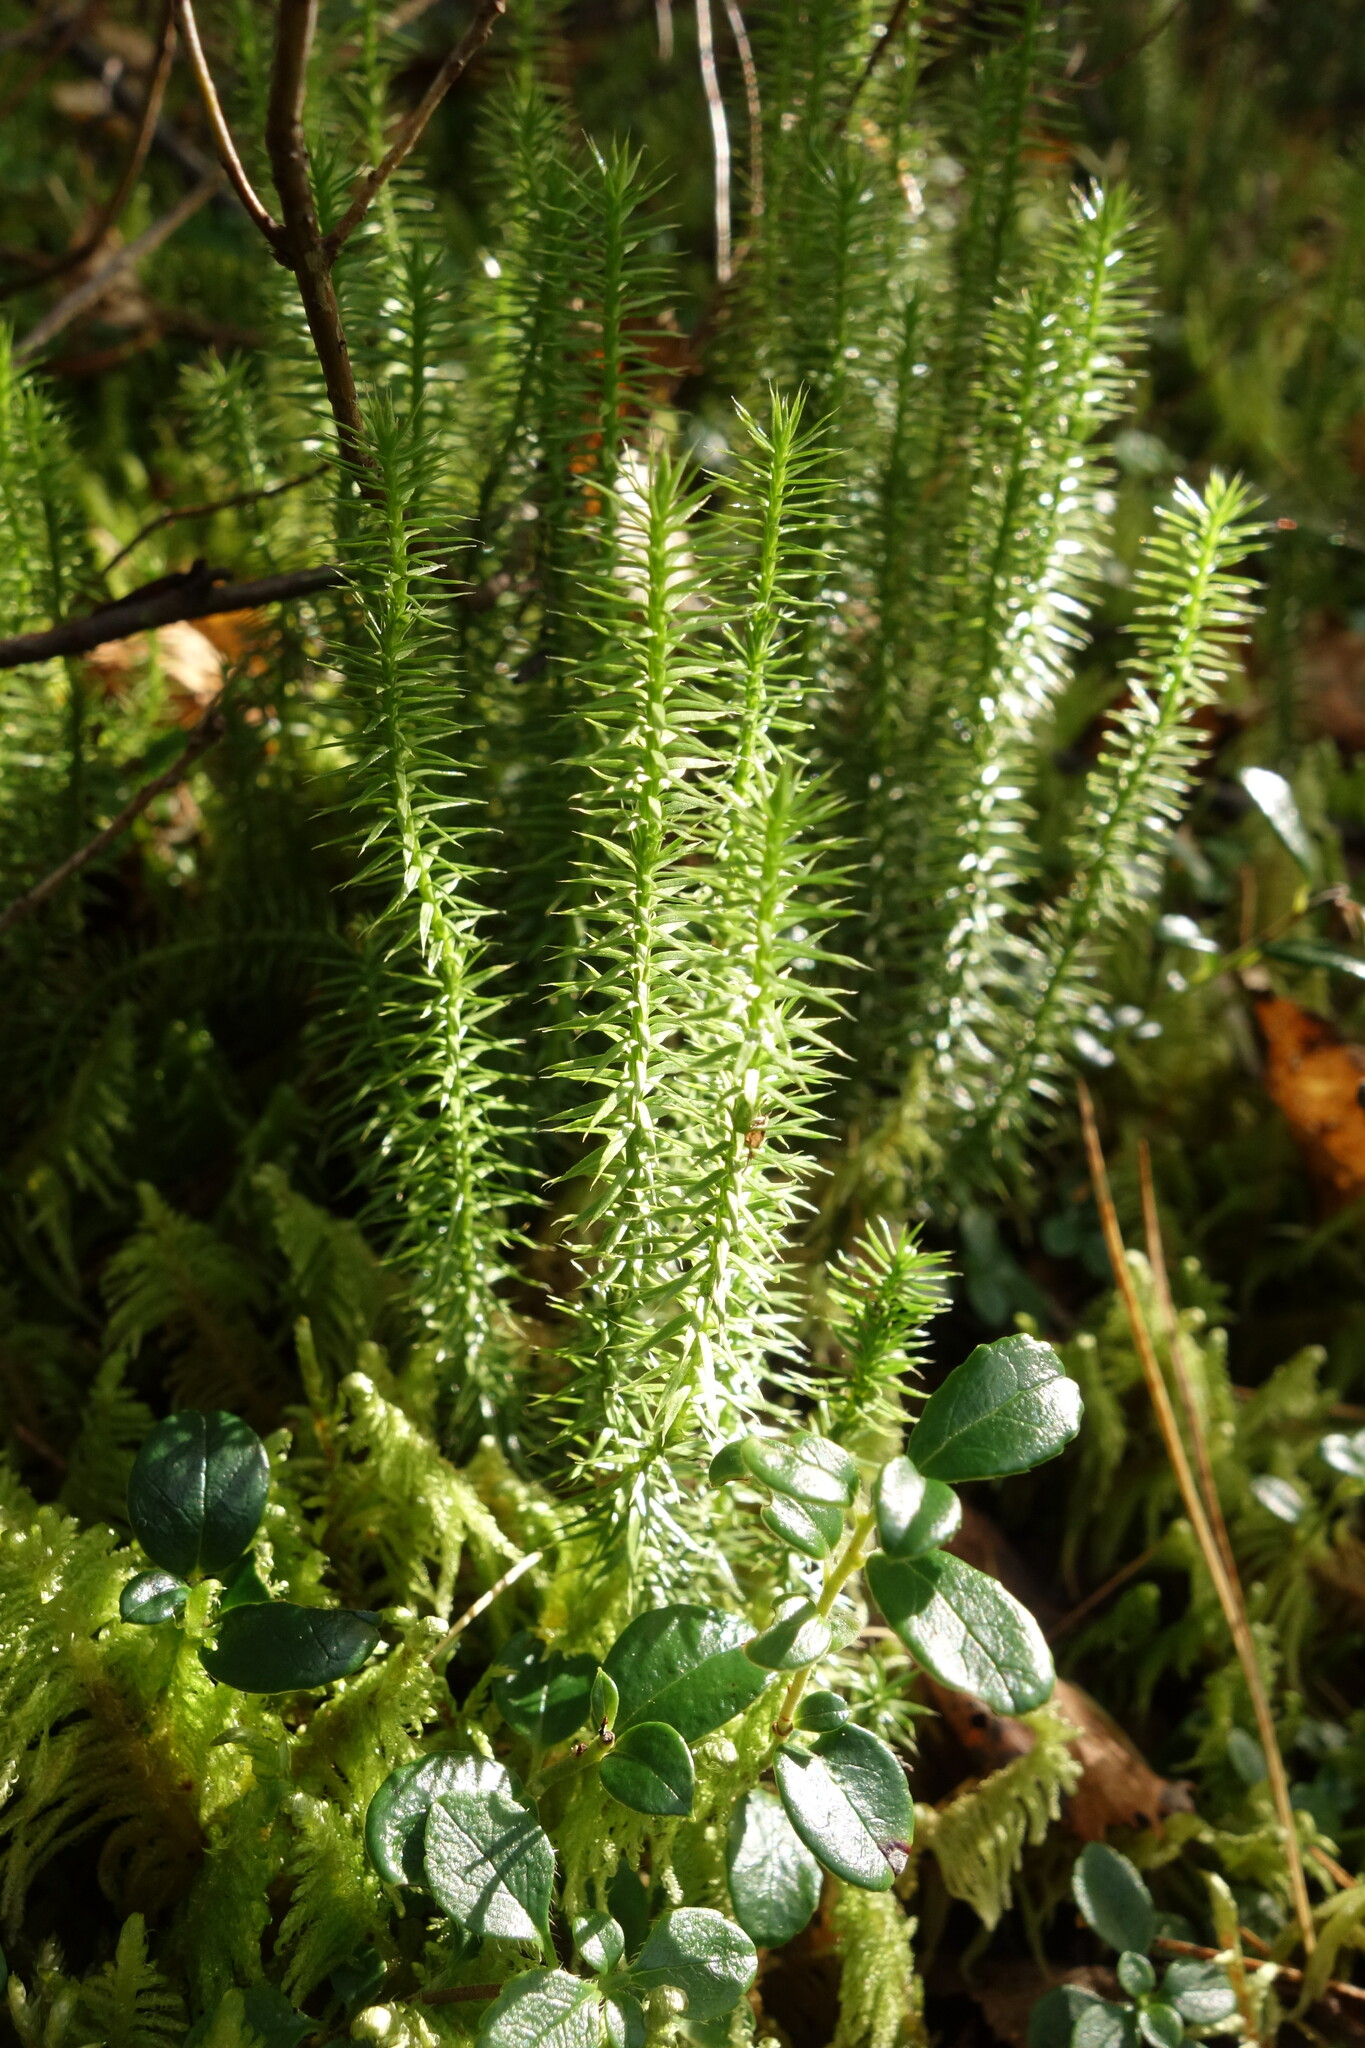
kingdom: Plantae
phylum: Tracheophyta
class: Lycopodiopsida
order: Lycopodiales
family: Lycopodiaceae
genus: Spinulum
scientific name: Spinulum annotinum
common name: Interrupted club-moss
